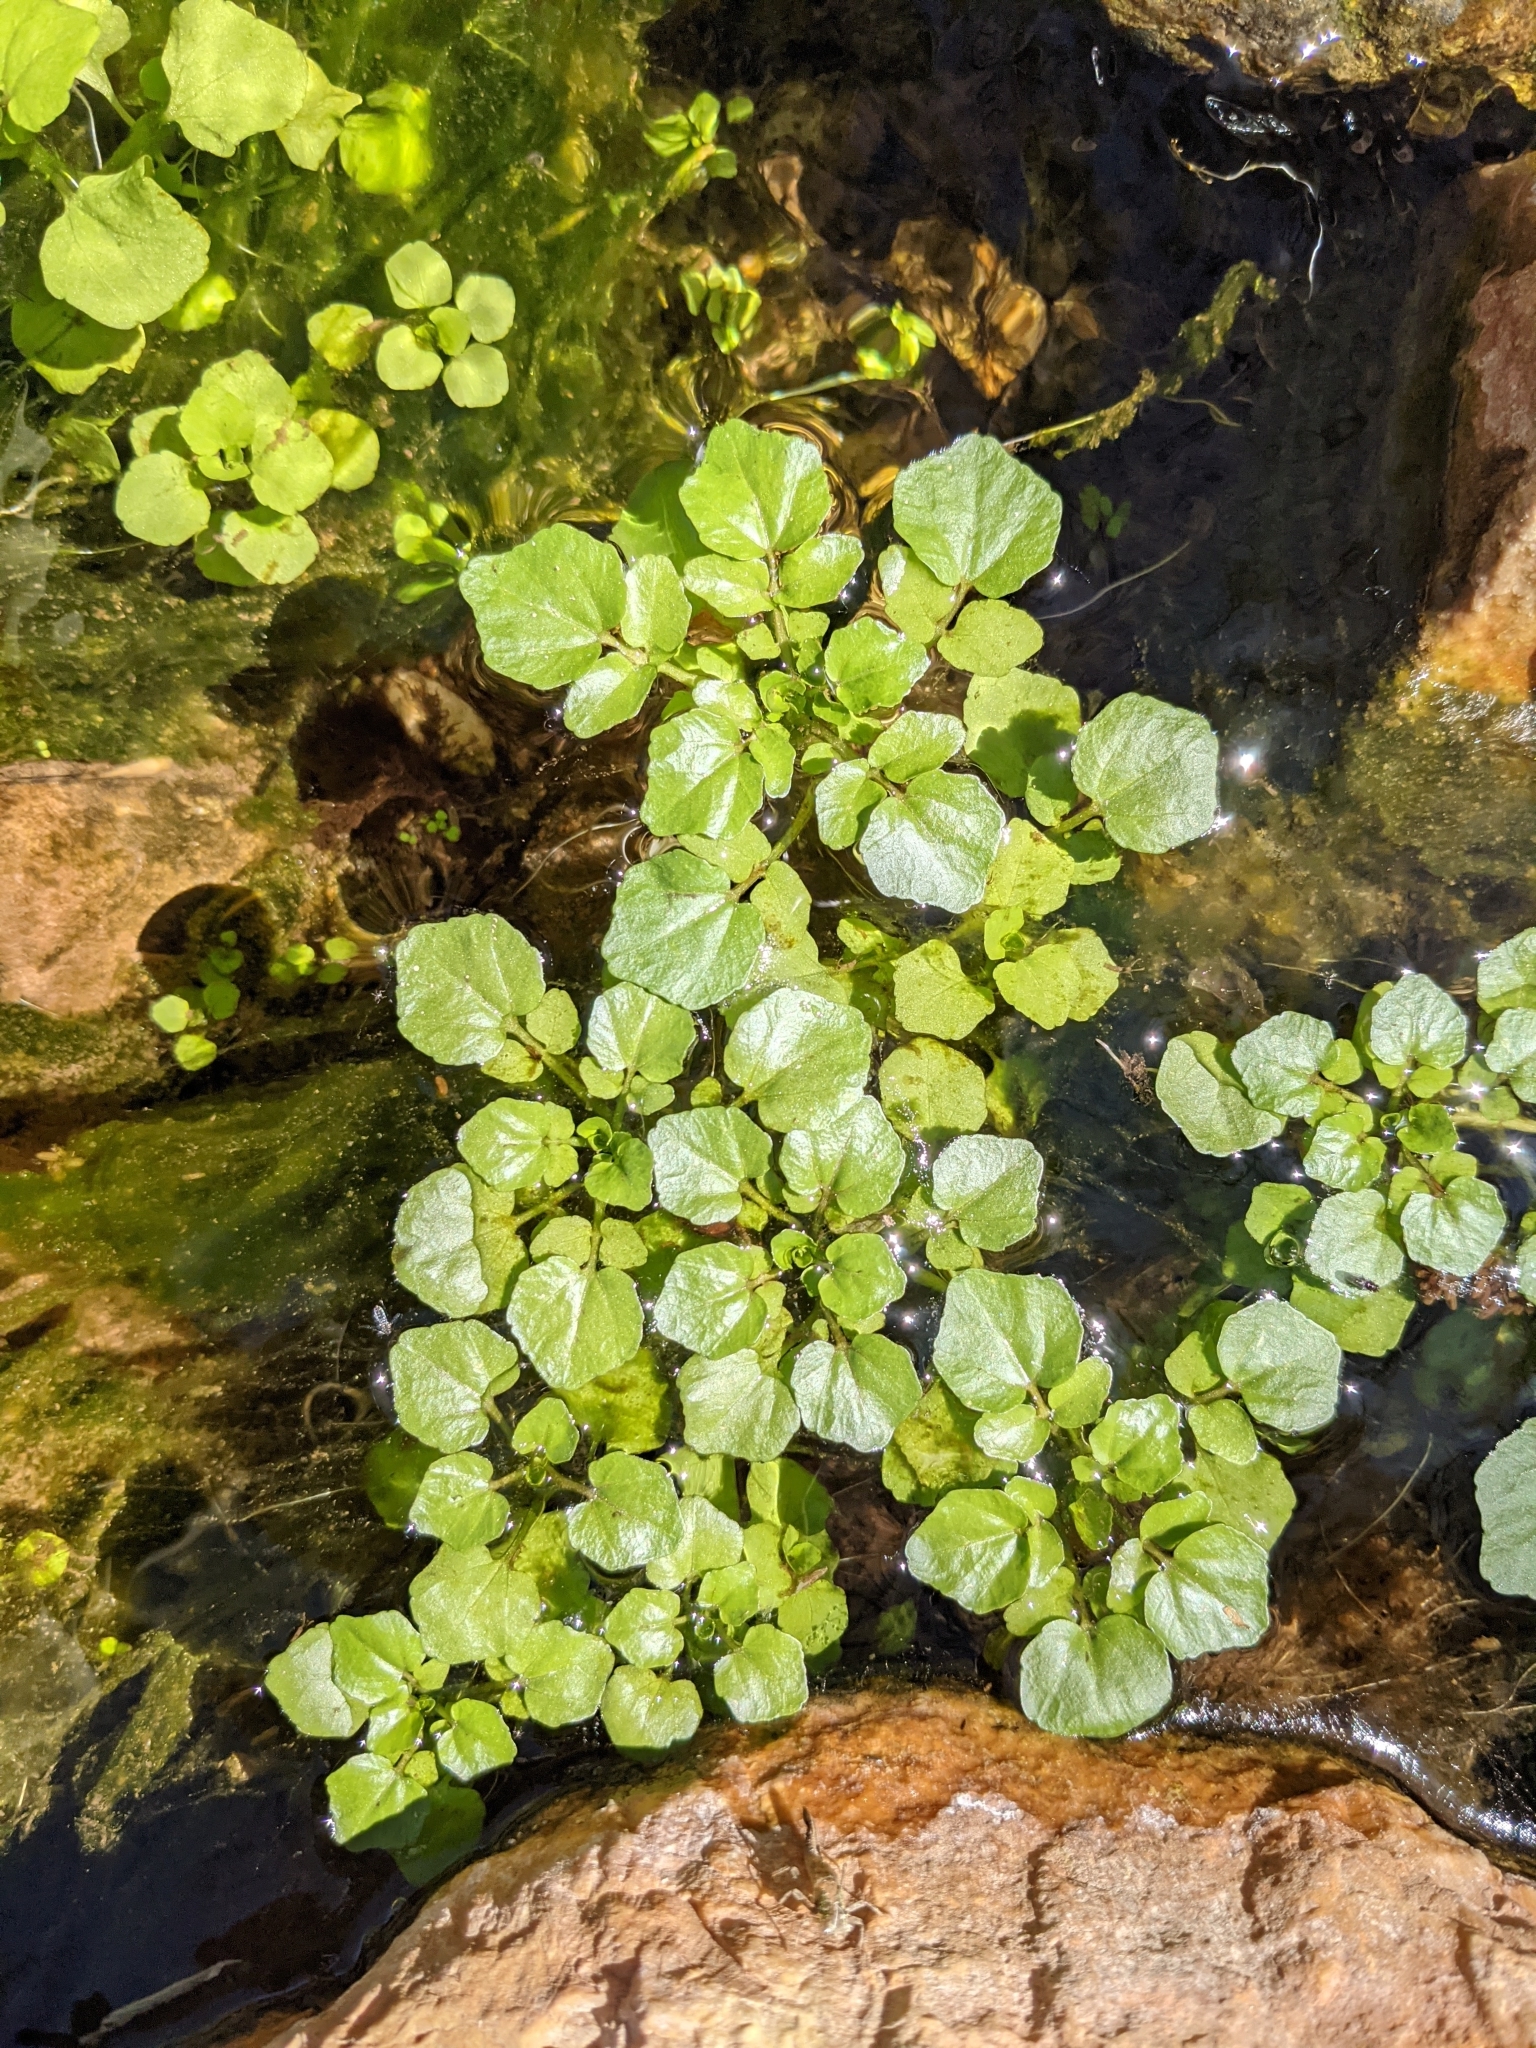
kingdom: Plantae
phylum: Tracheophyta
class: Magnoliopsida
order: Brassicales
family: Brassicaceae
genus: Nasturtium
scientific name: Nasturtium officinale
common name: Watercress
